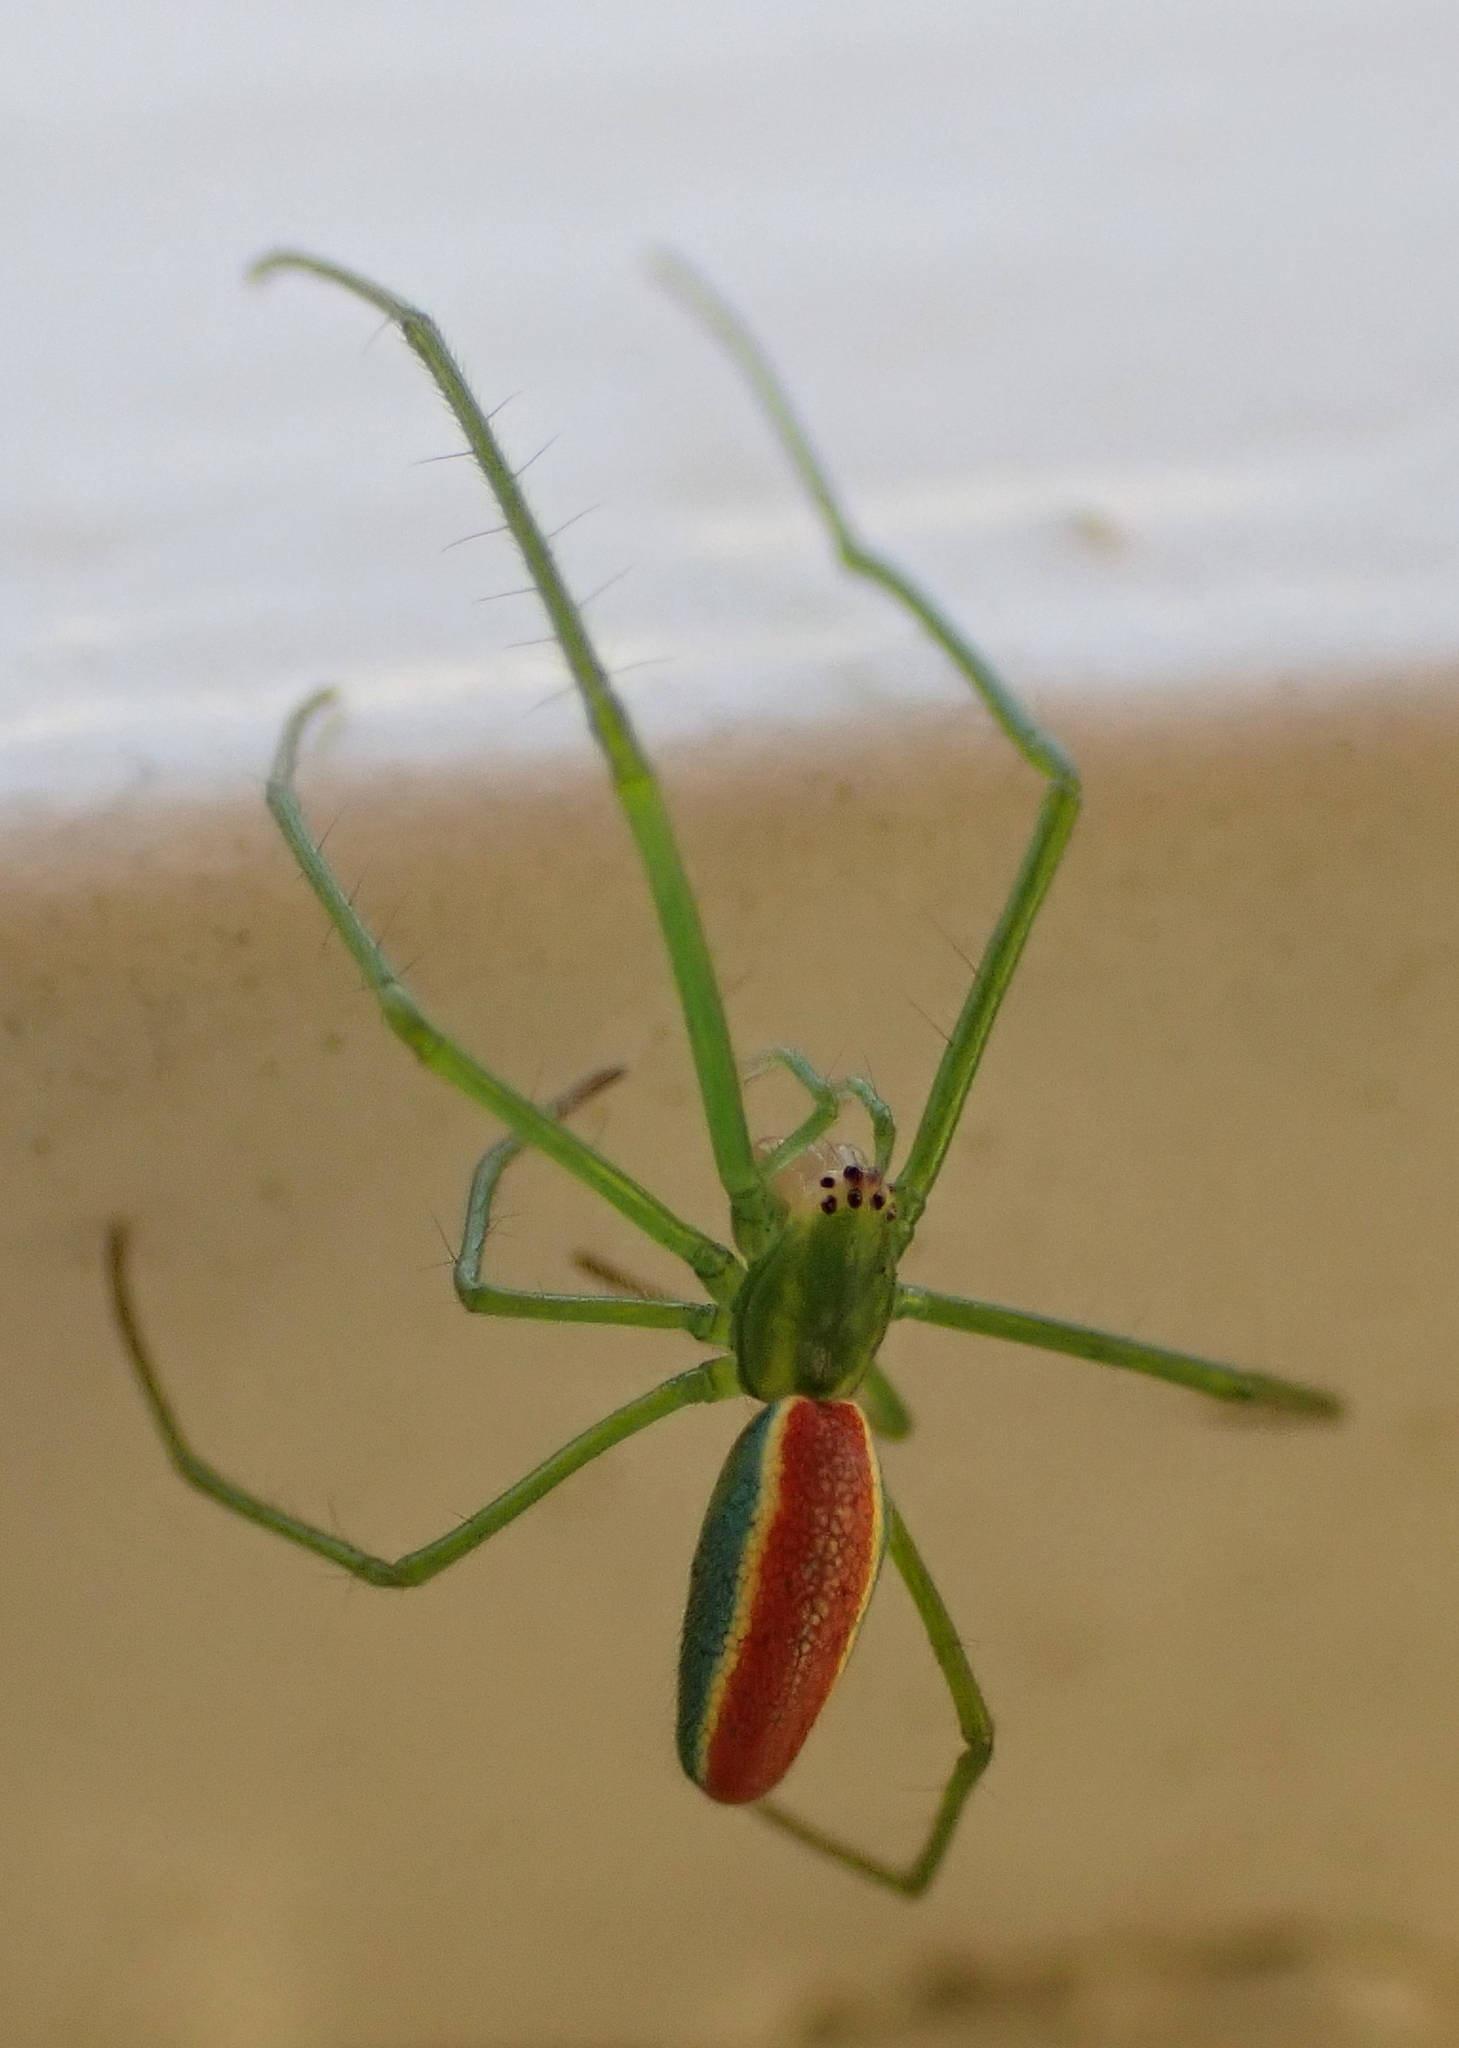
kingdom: Animalia
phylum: Arthropoda
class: Arachnida
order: Araneae
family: Tetragnathidae
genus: Tetragnatha
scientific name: Tetragnatha viridis
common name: Green long-jawed spider
